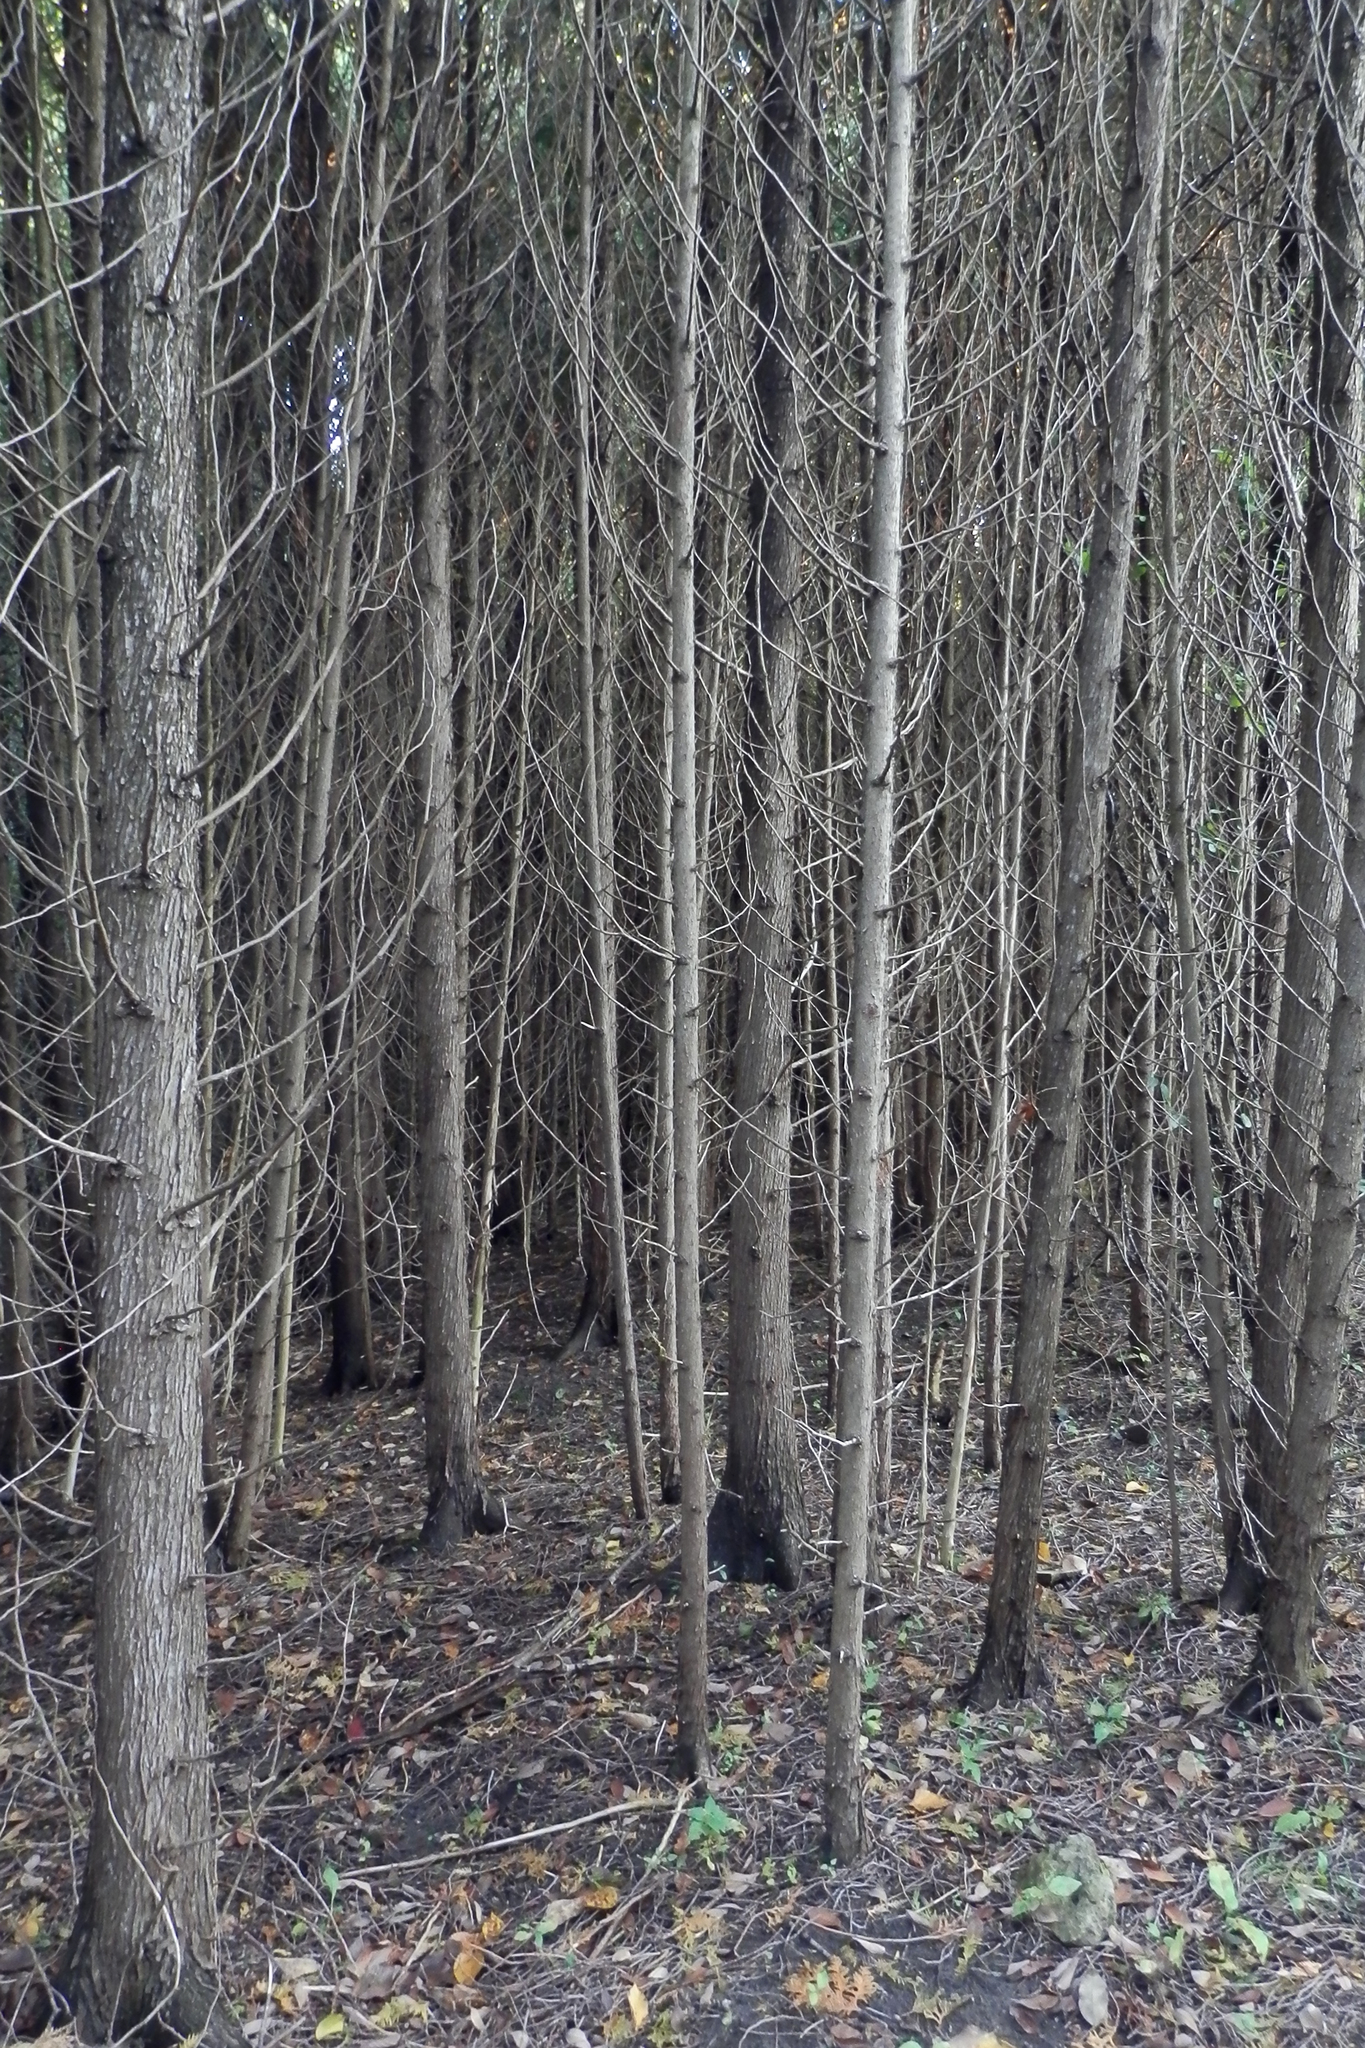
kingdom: Plantae
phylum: Tracheophyta
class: Pinopsida
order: Pinales
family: Cupressaceae
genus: Thuja
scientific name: Thuja occidentalis
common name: Northern white-cedar
